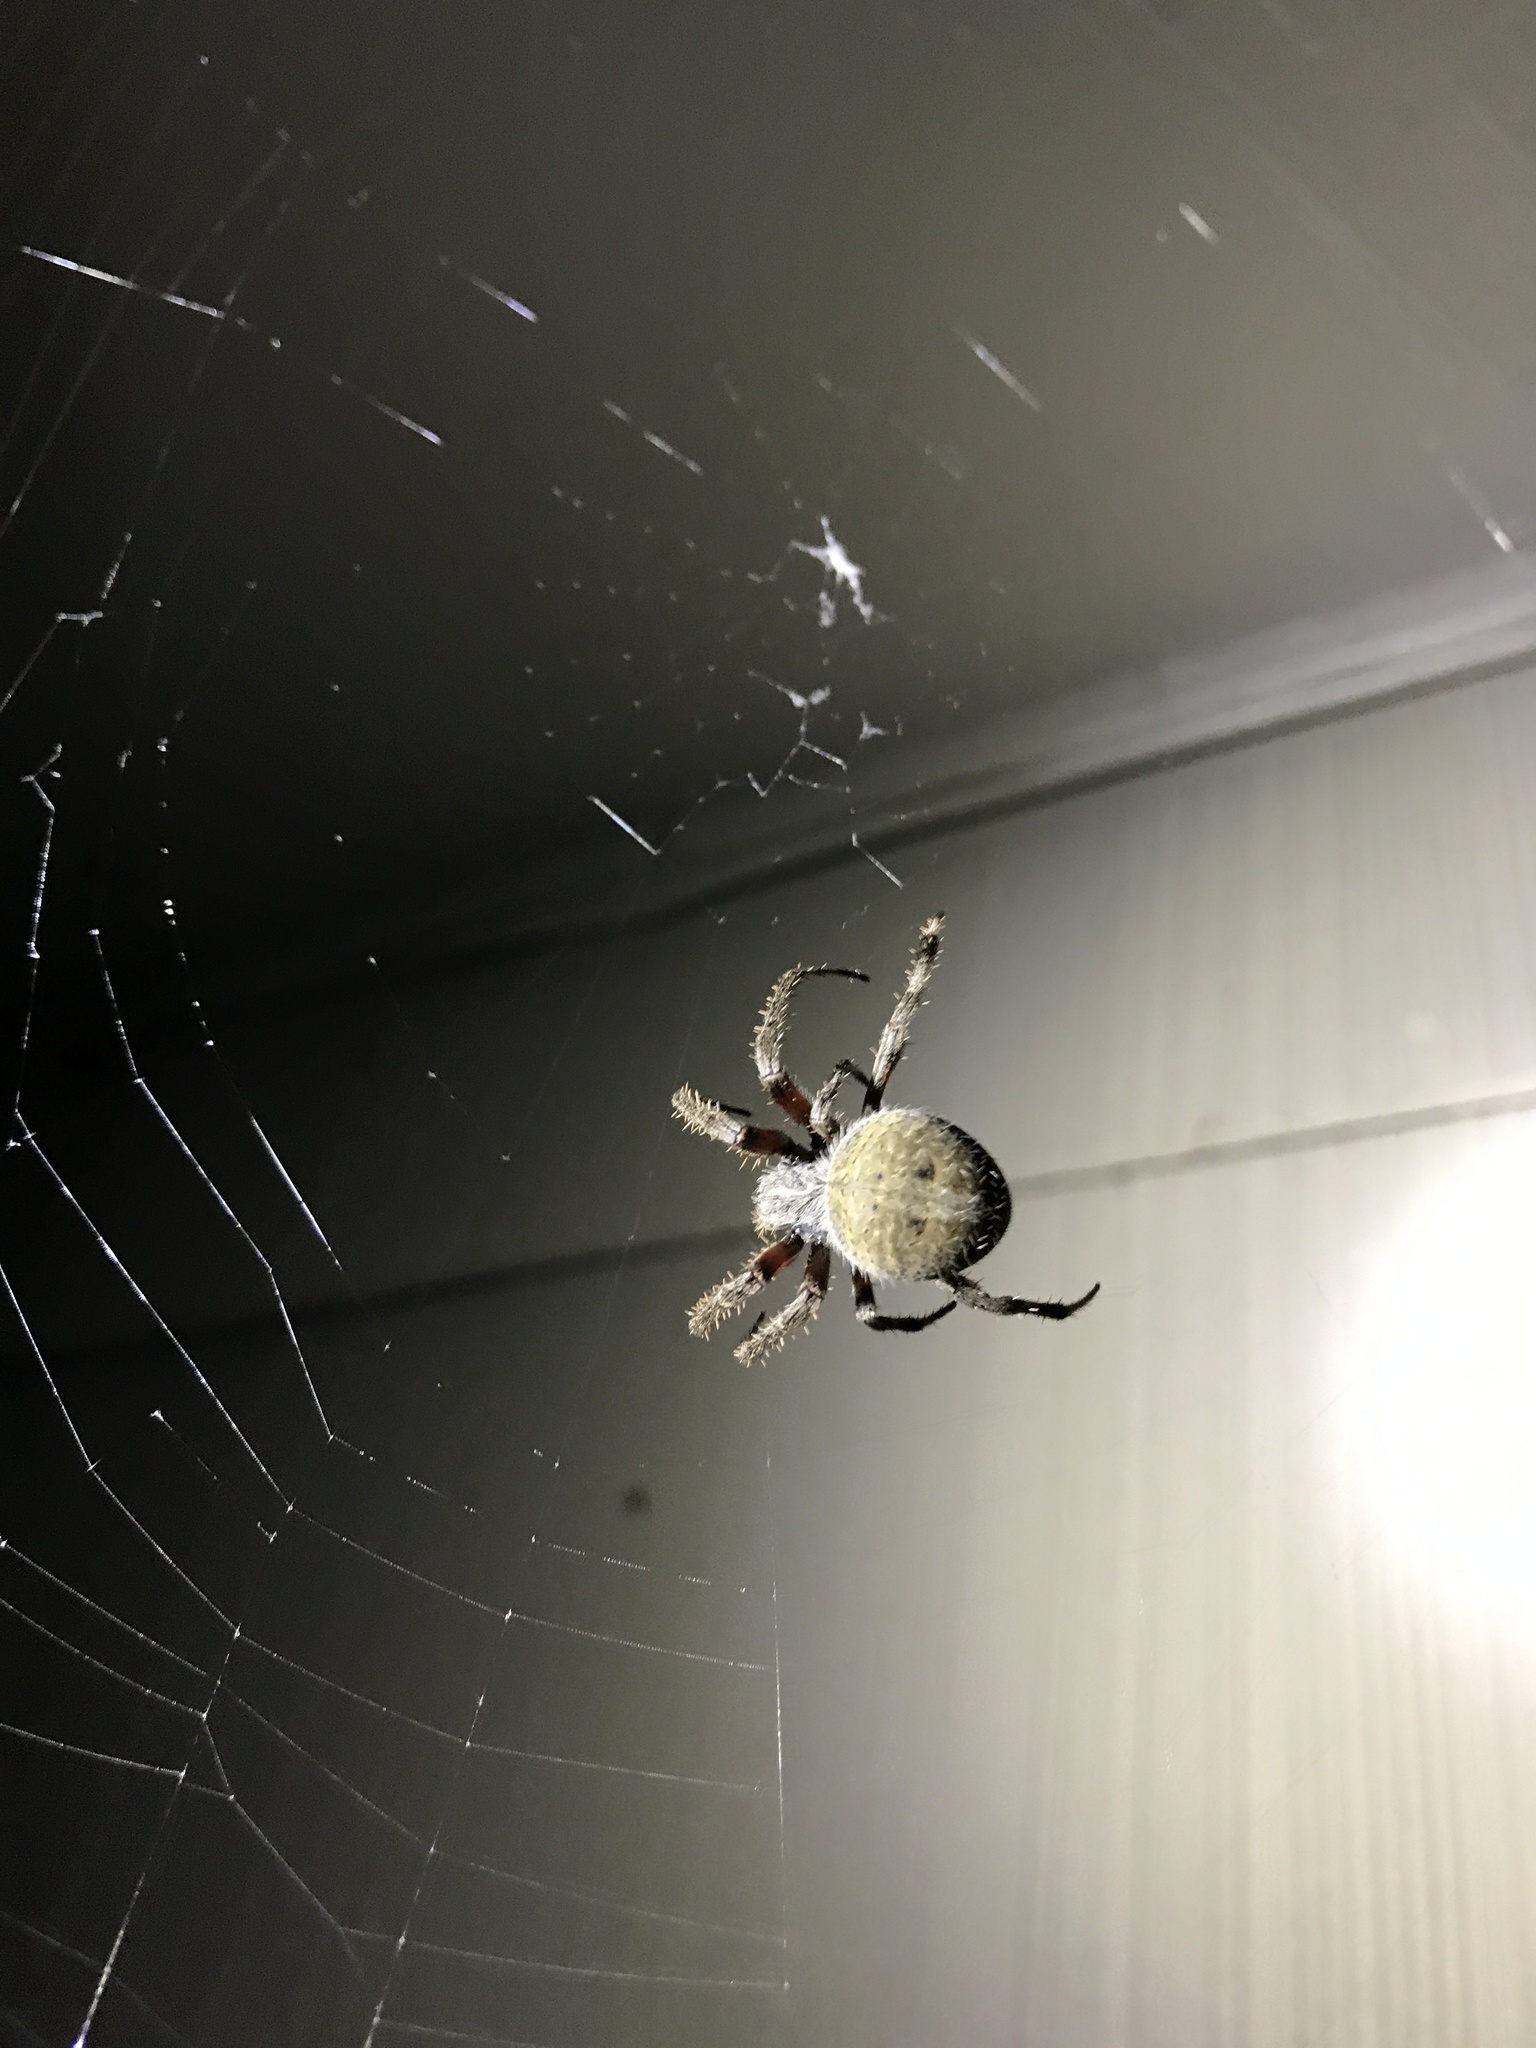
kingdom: Animalia
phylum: Arthropoda
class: Arachnida
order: Araneae
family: Araneidae
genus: Neoscona
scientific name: Neoscona crucifera
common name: Spotted orbweaver
